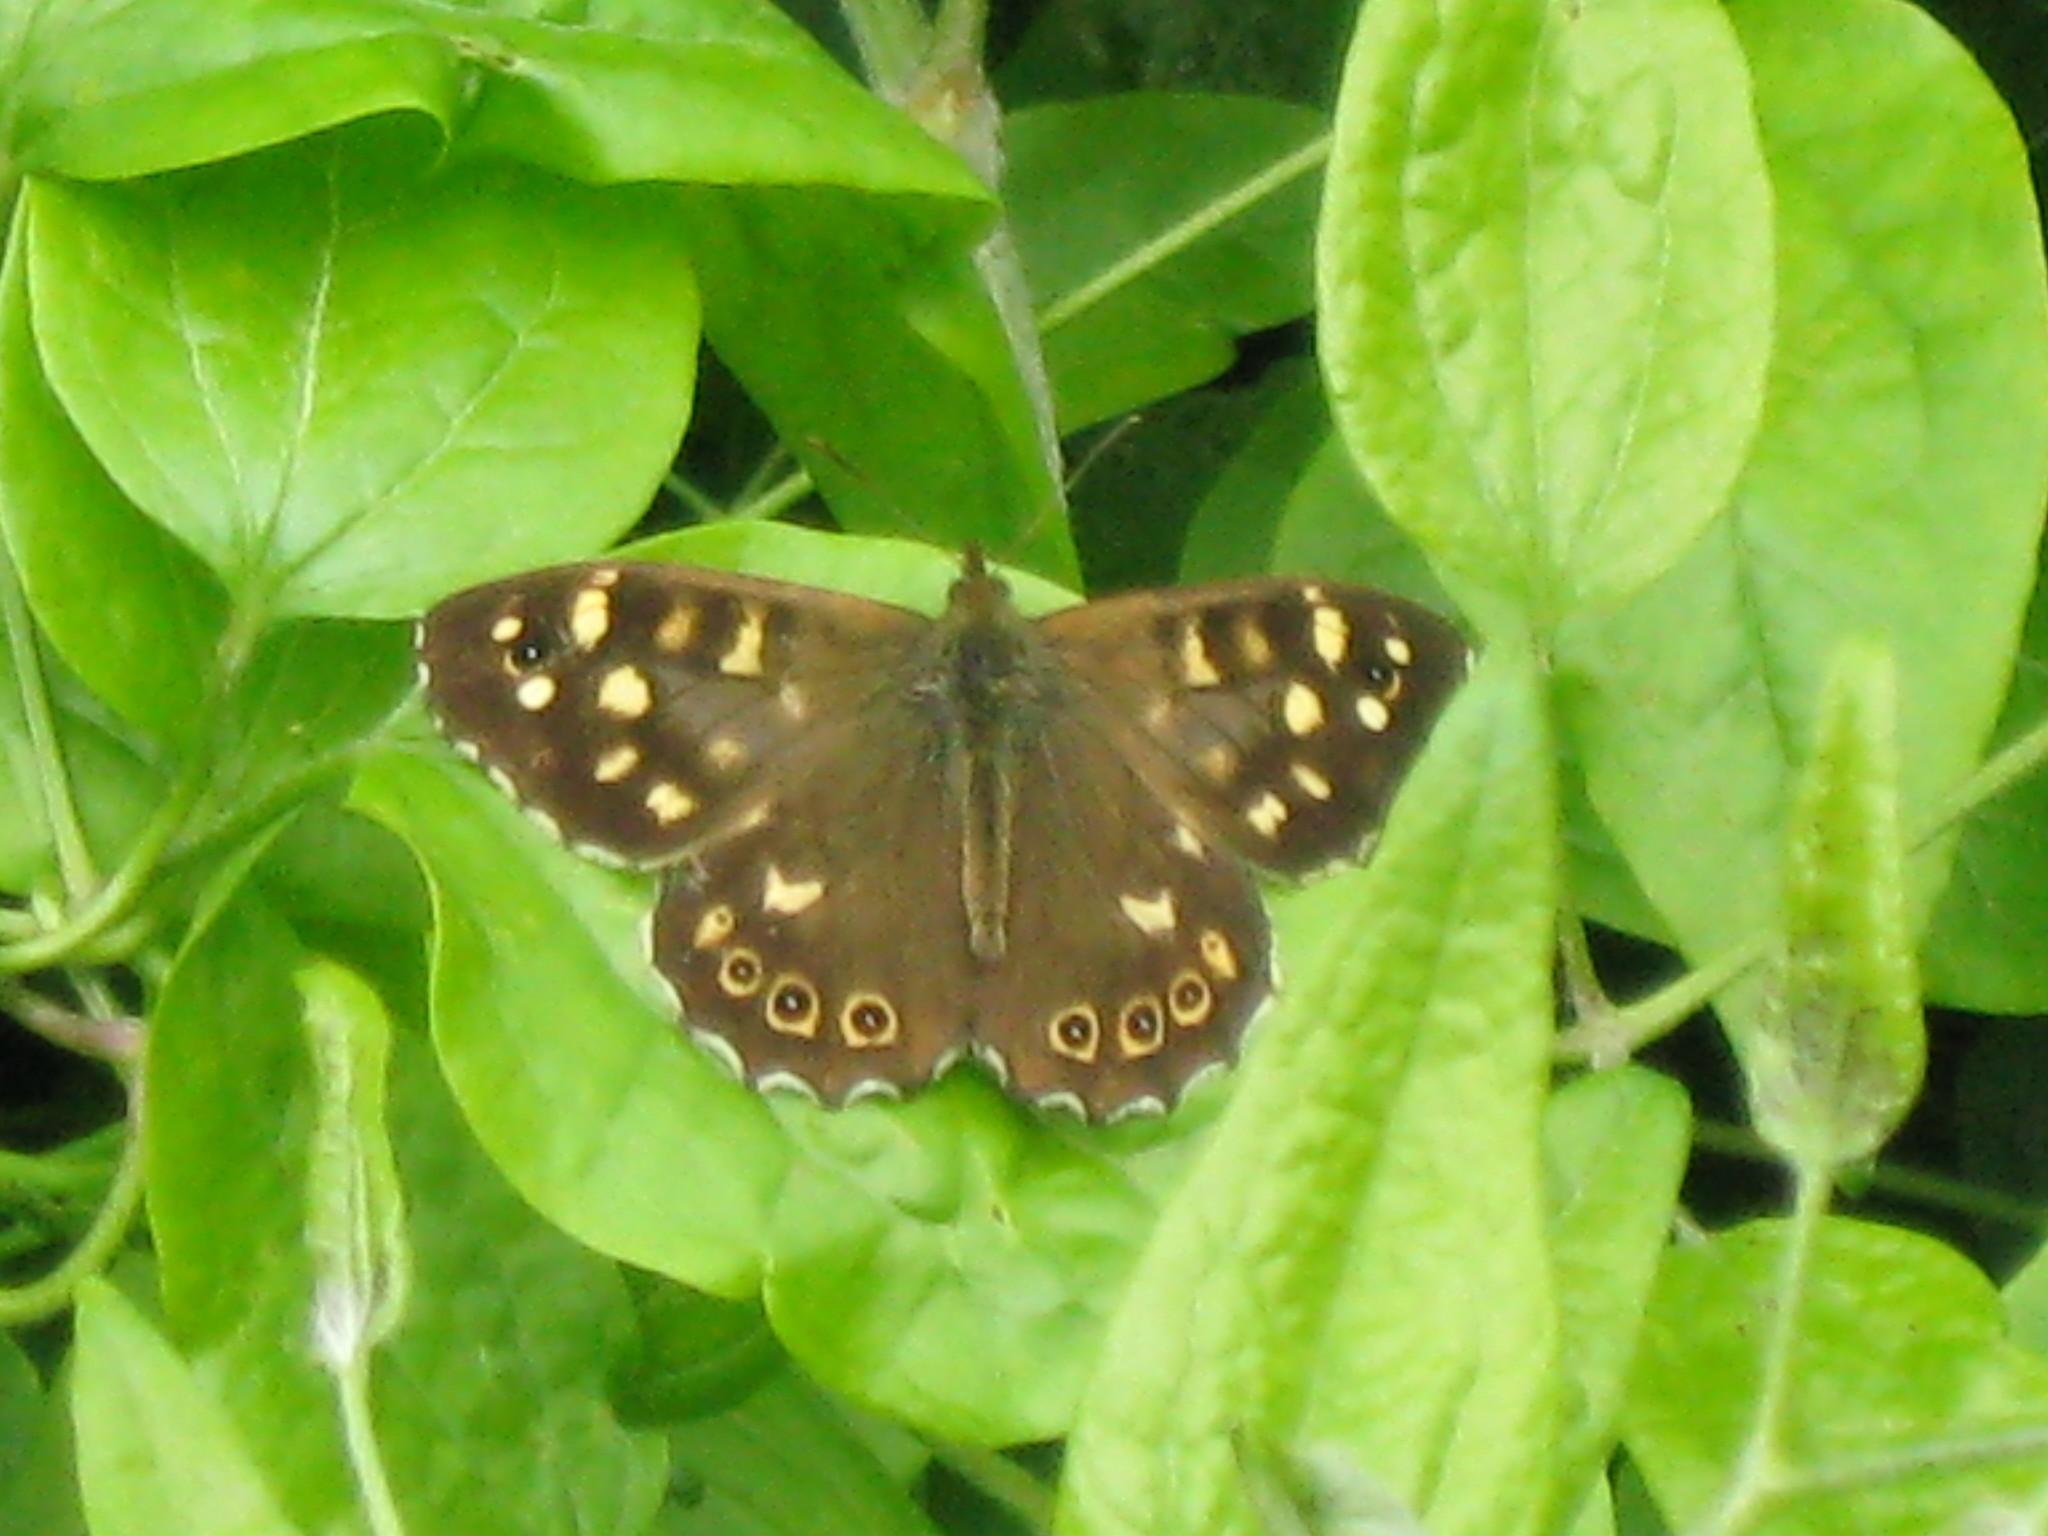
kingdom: Animalia
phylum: Arthropoda
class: Insecta
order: Lepidoptera
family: Nymphalidae
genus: Pararge
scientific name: Pararge aegeria
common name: Speckled wood
